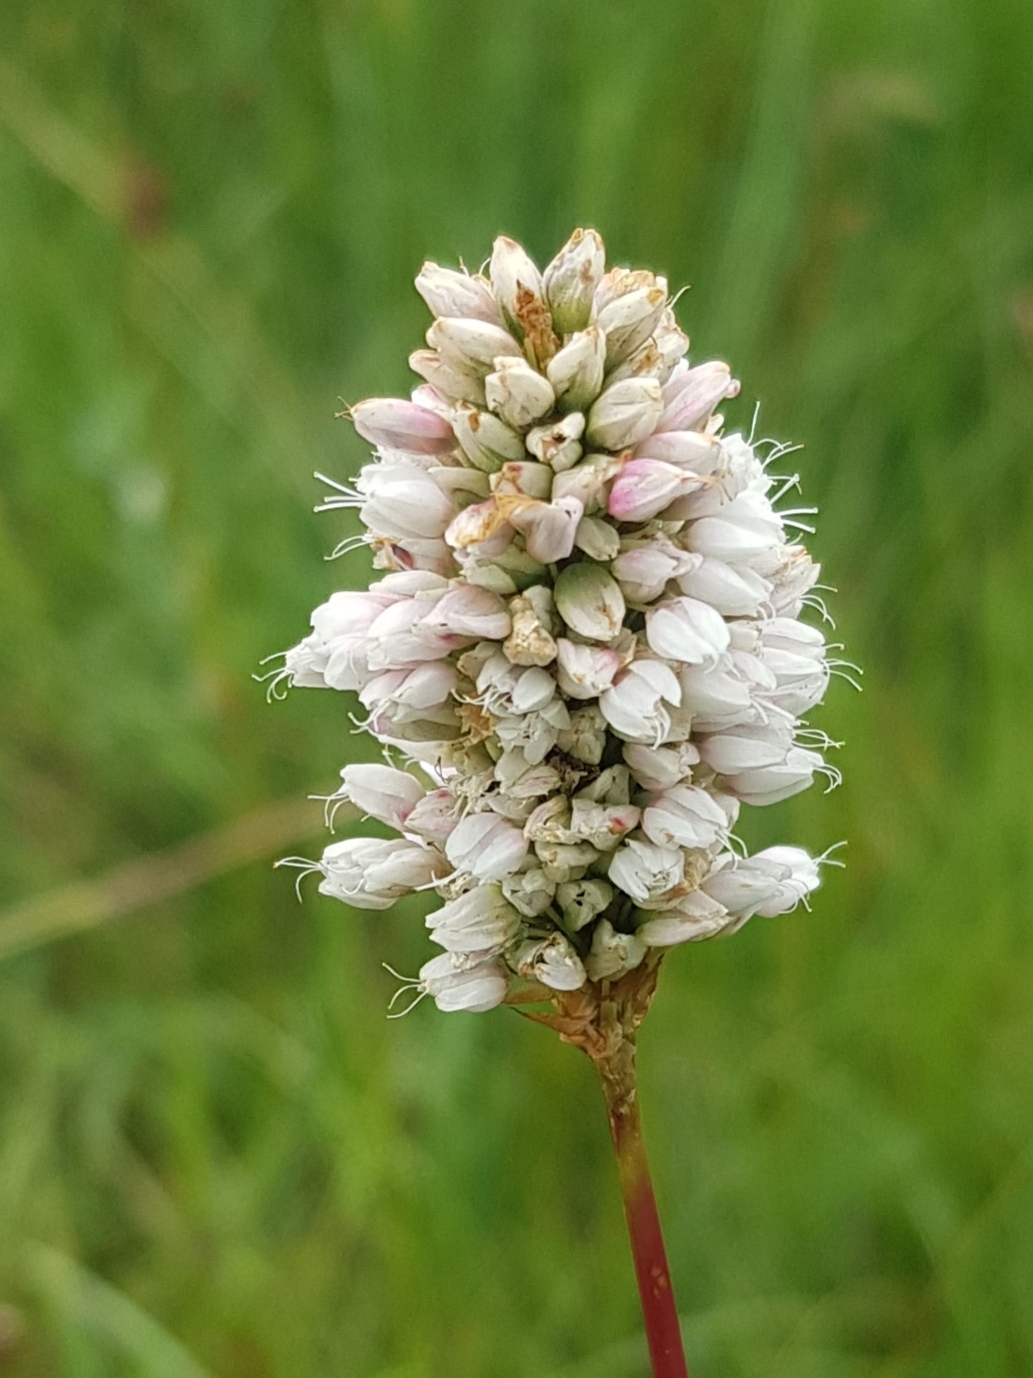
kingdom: Plantae
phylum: Tracheophyta
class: Magnoliopsida
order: Caryophyllales
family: Polygonaceae
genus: Bistorta
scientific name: Bistorta elliptica
